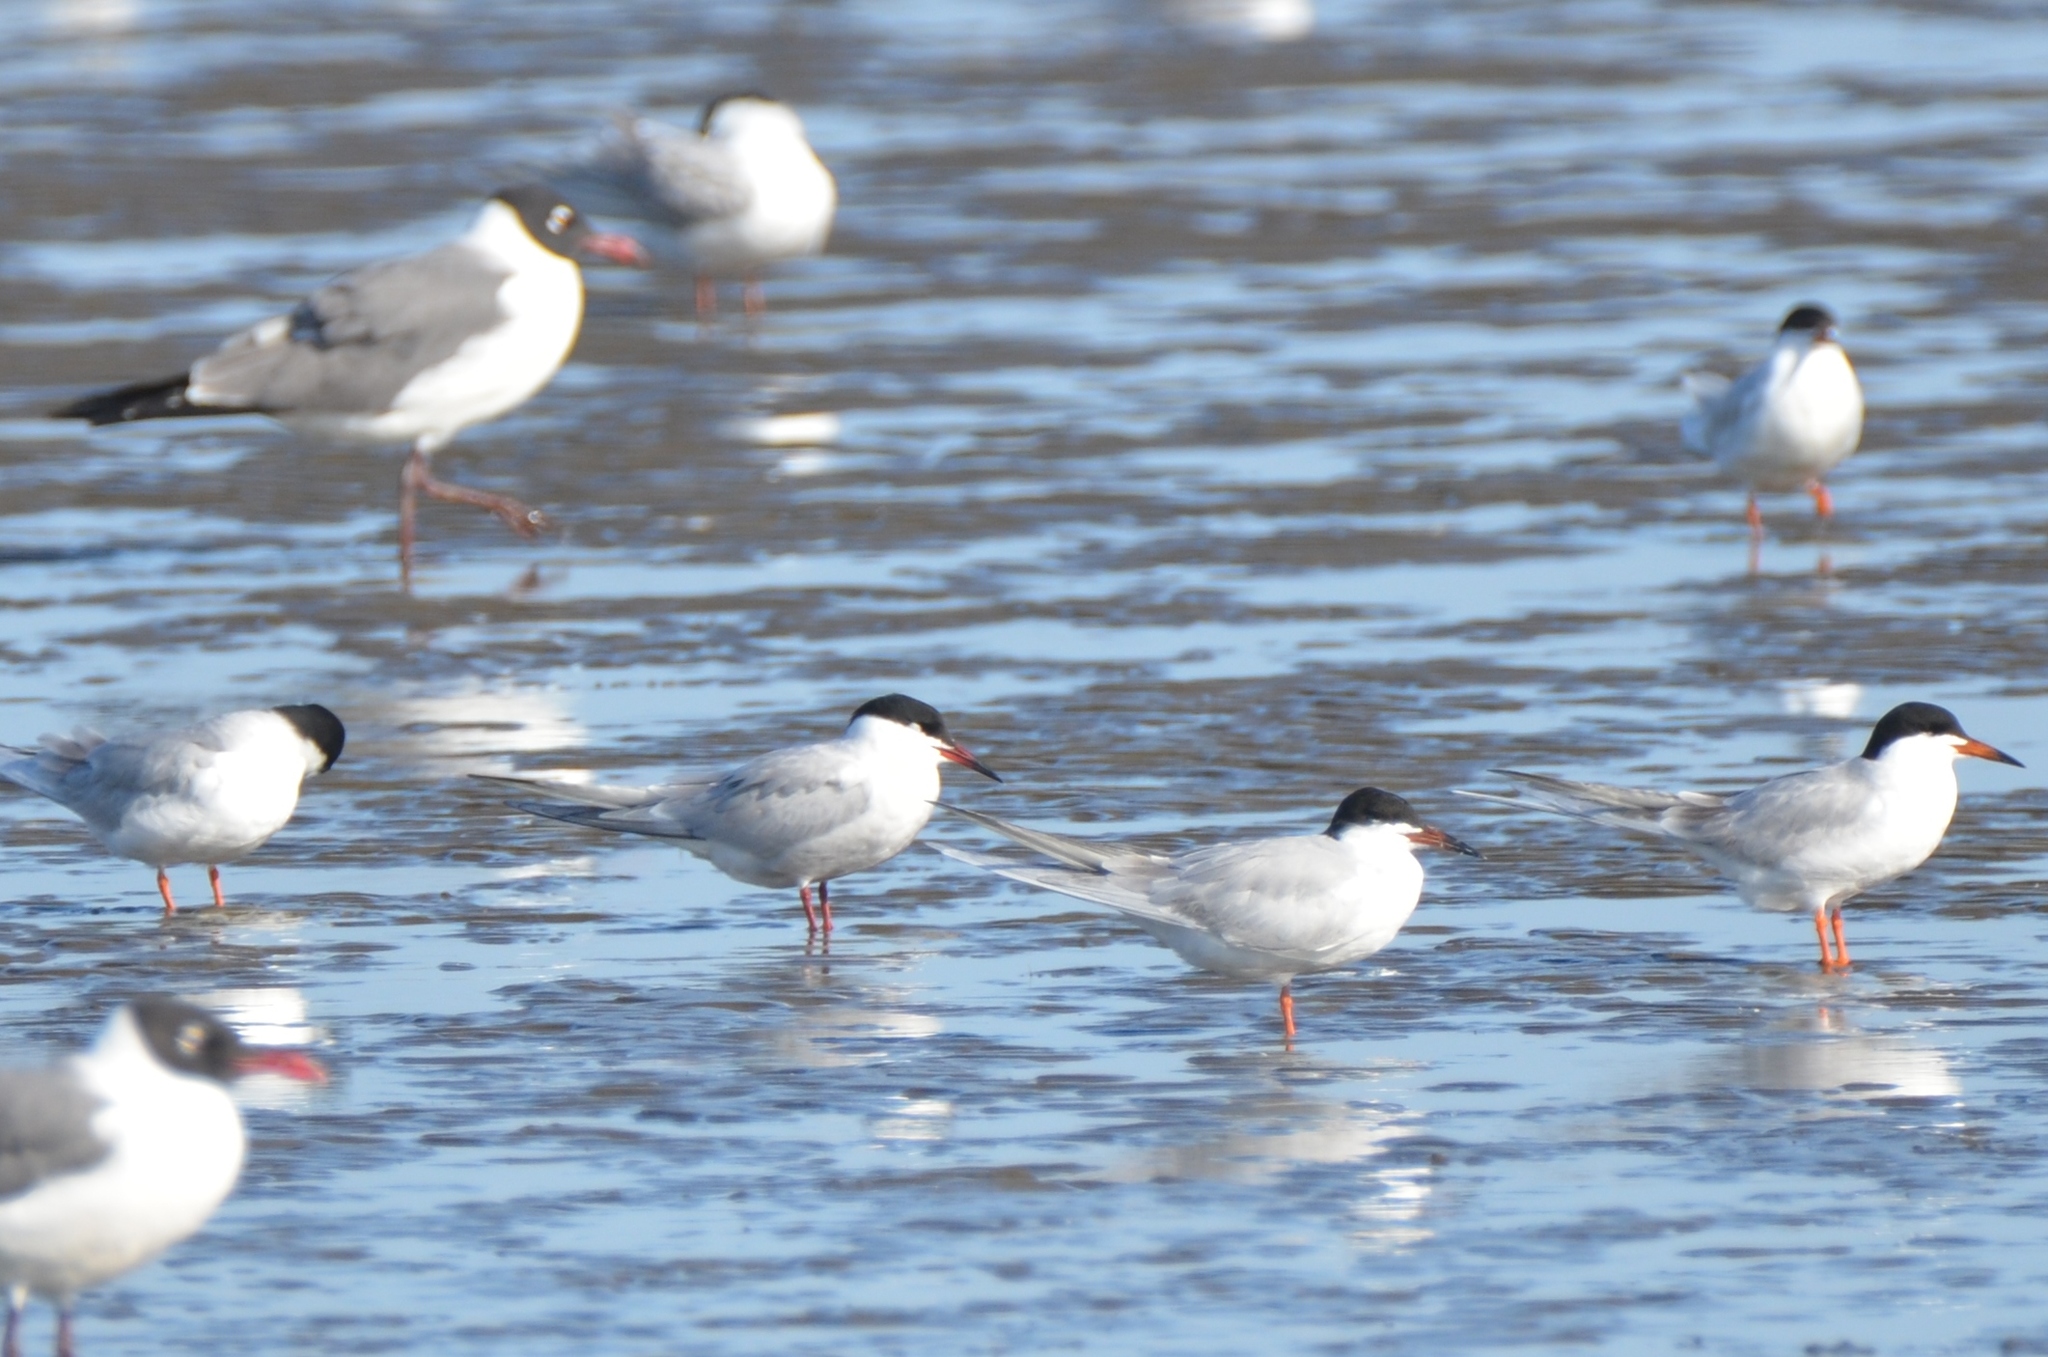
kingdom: Animalia
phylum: Chordata
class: Aves
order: Charadriiformes
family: Laridae
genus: Sterna
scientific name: Sterna hirundo
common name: Common tern
